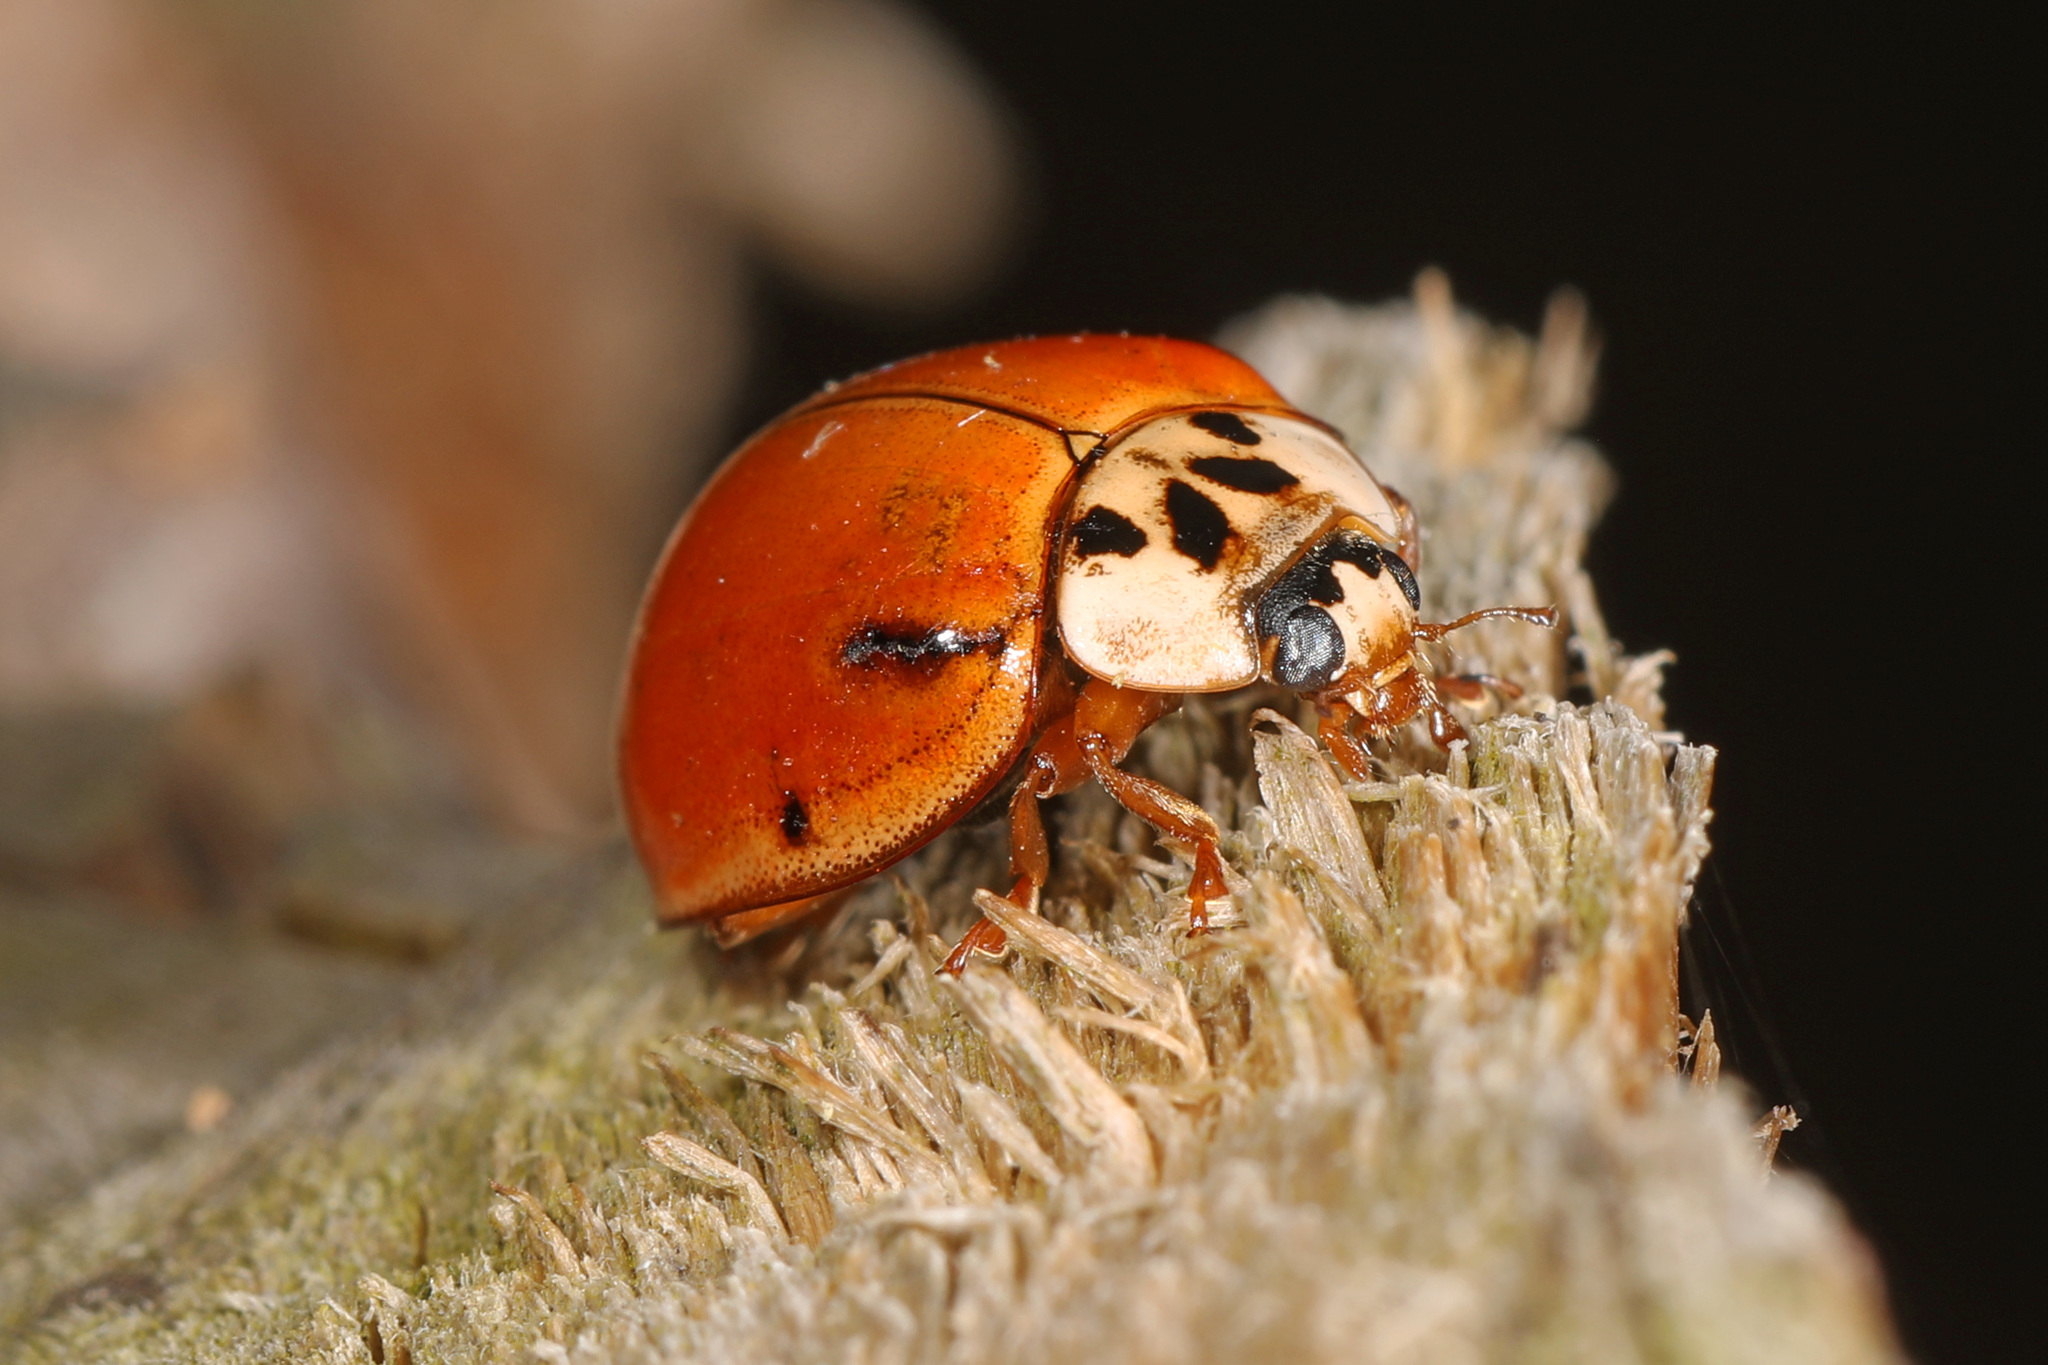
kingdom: Animalia
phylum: Arthropoda
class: Insecta
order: Coleoptera
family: Coccinellidae
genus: Harmonia
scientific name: Harmonia axyridis
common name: Harlequin ladybird
